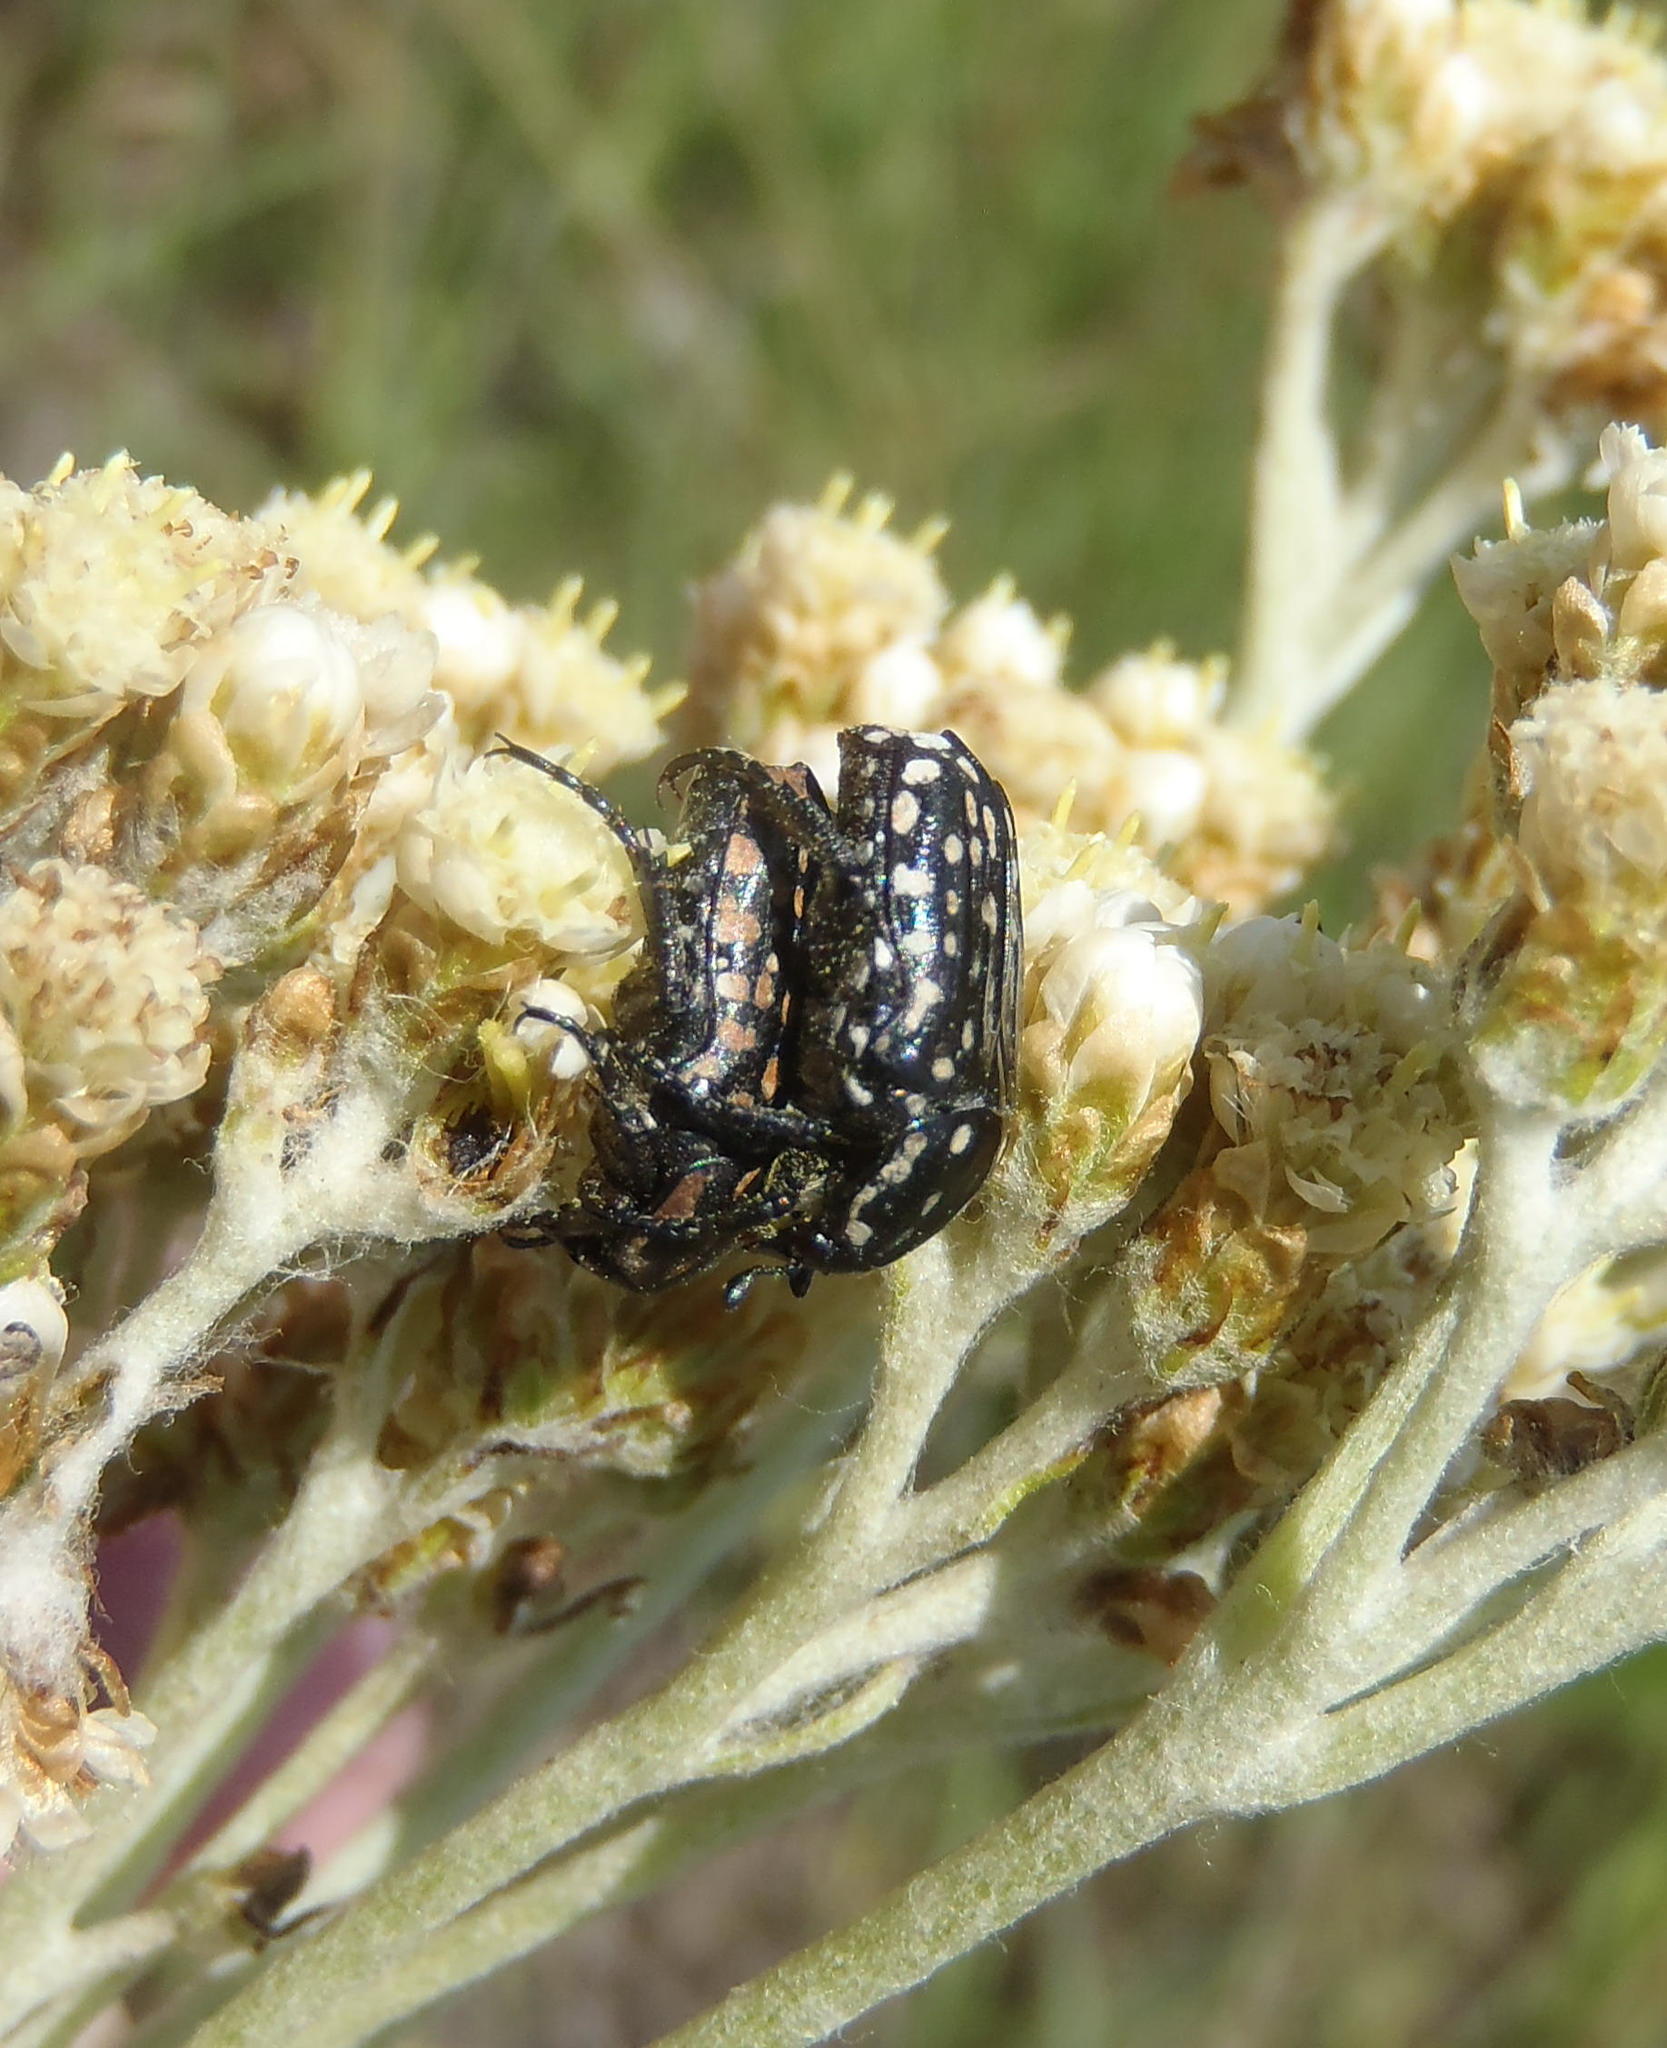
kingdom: Animalia
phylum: Arthropoda
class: Insecta
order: Coleoptera
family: Scarabaeidae
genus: Cyrtothyrea
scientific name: Cyrtothyrea testaceoguttata
